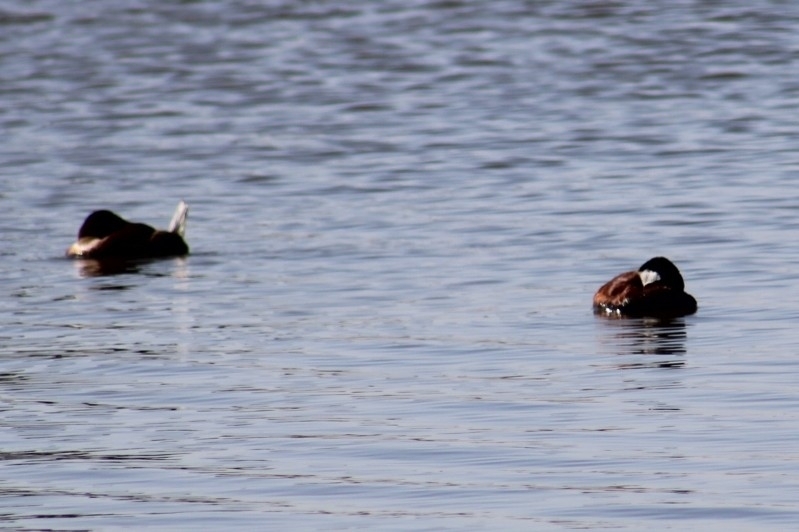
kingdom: Animalia
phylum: Chordata
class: Aves
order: Anseriformes
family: Anatidae
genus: Oxyura
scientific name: Oxyura jamaicensis
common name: Ruddy duck
